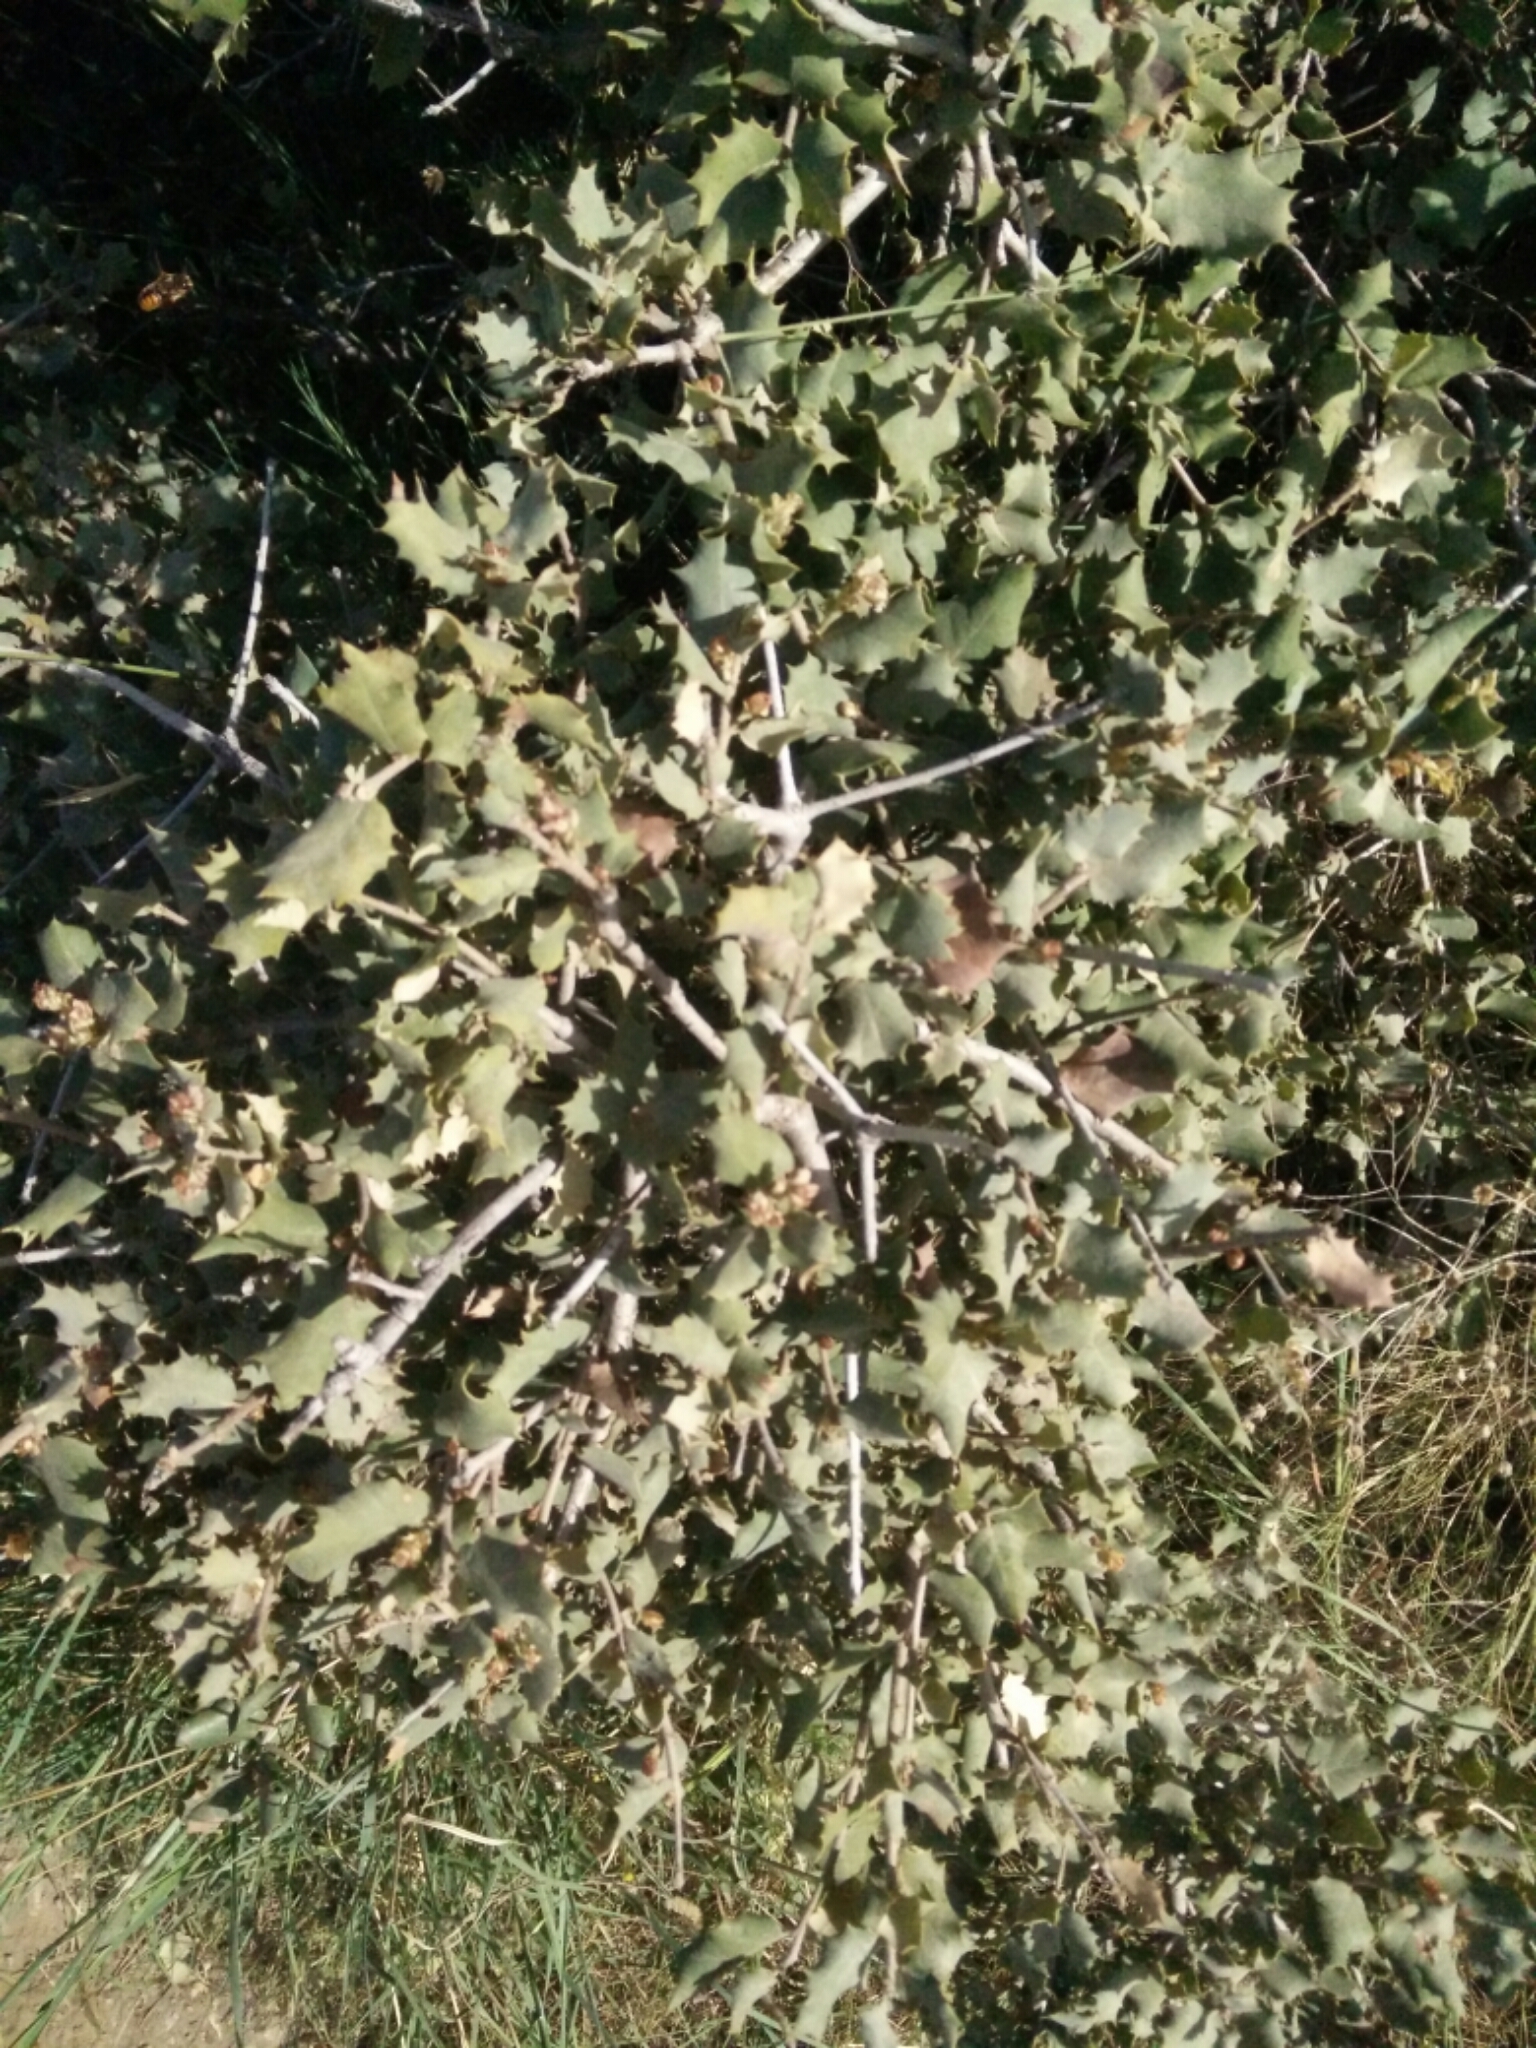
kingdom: Plantae
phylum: Tracheophyta
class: Magnoliopsida
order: Fagales
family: Fagaceae
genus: Quercus
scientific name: Quercus rotundifolia
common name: Holm oak
